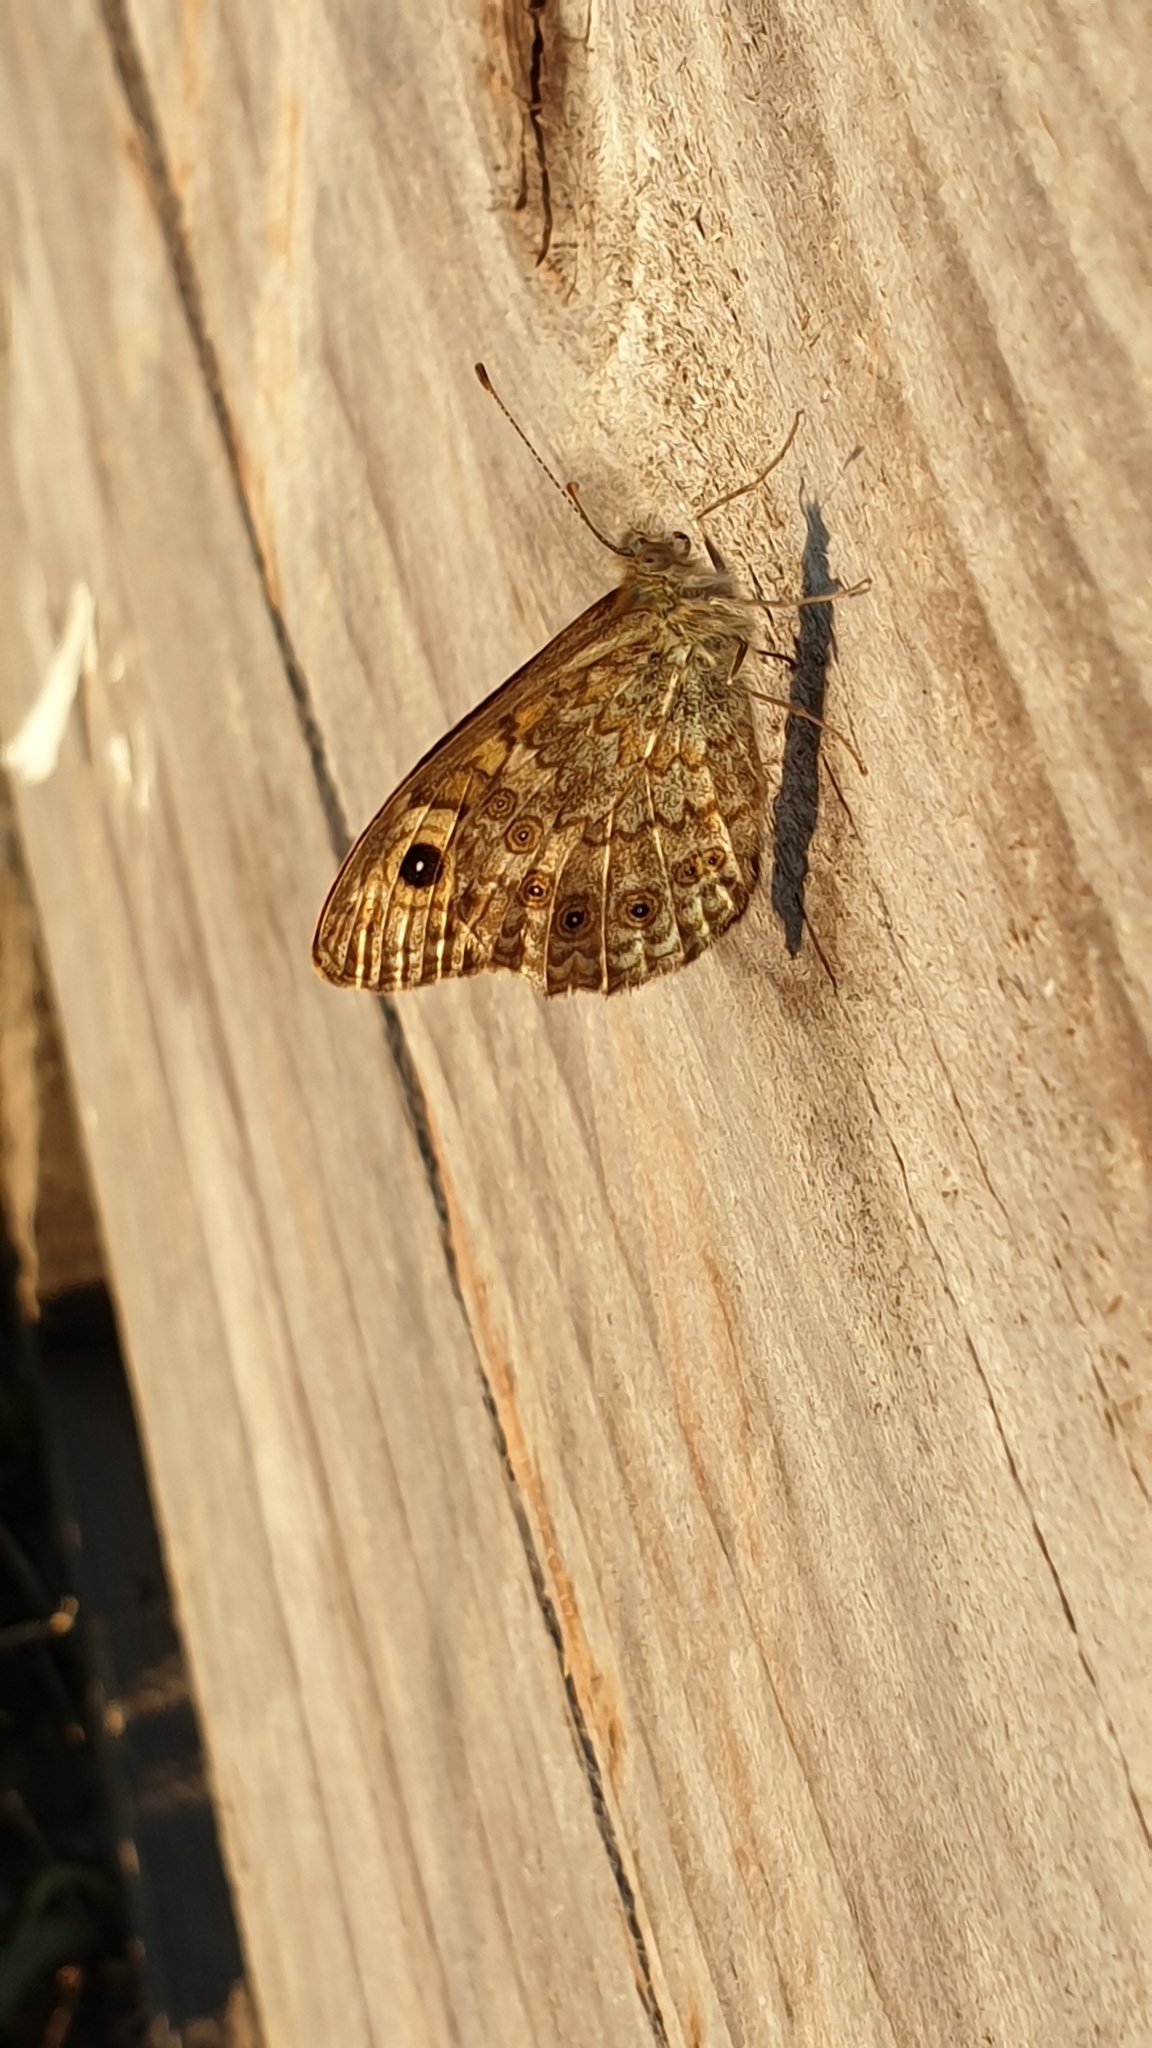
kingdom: Animalia
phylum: Arthropoda
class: Insecta
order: Lepidoptera
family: Nymphalidae
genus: Pararge
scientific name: Pararge Lasiommata megera
